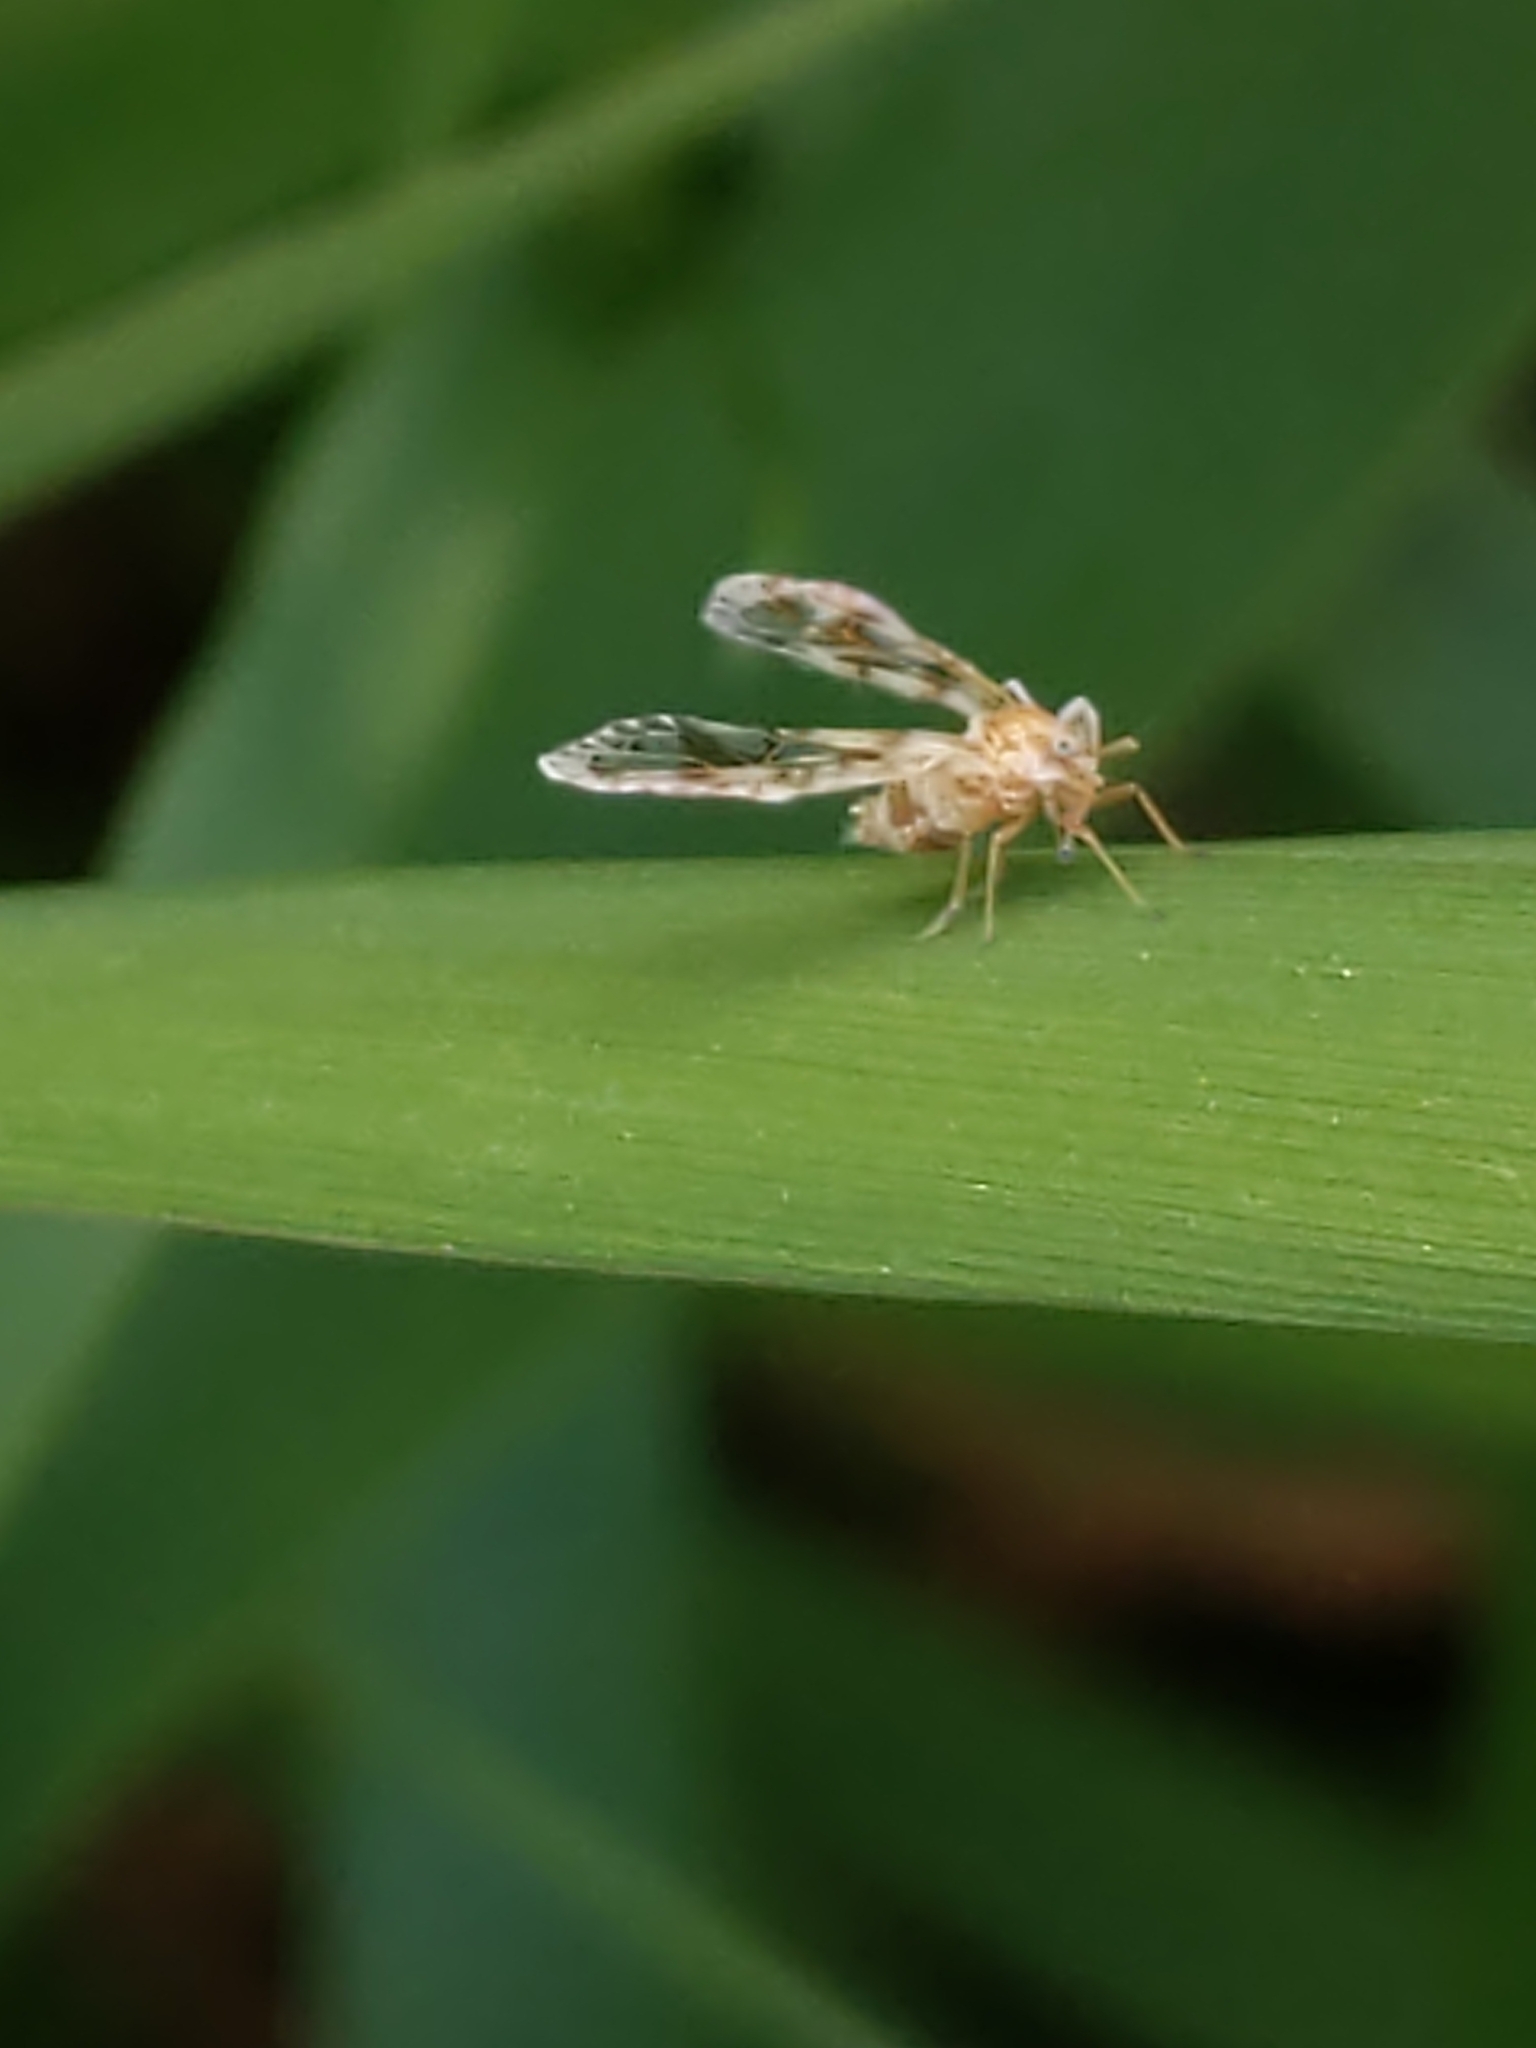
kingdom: Animalia
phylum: Arthropoda
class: Insecta
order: Hemiptera
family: Derbidae
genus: Anotia
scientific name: Anotia
